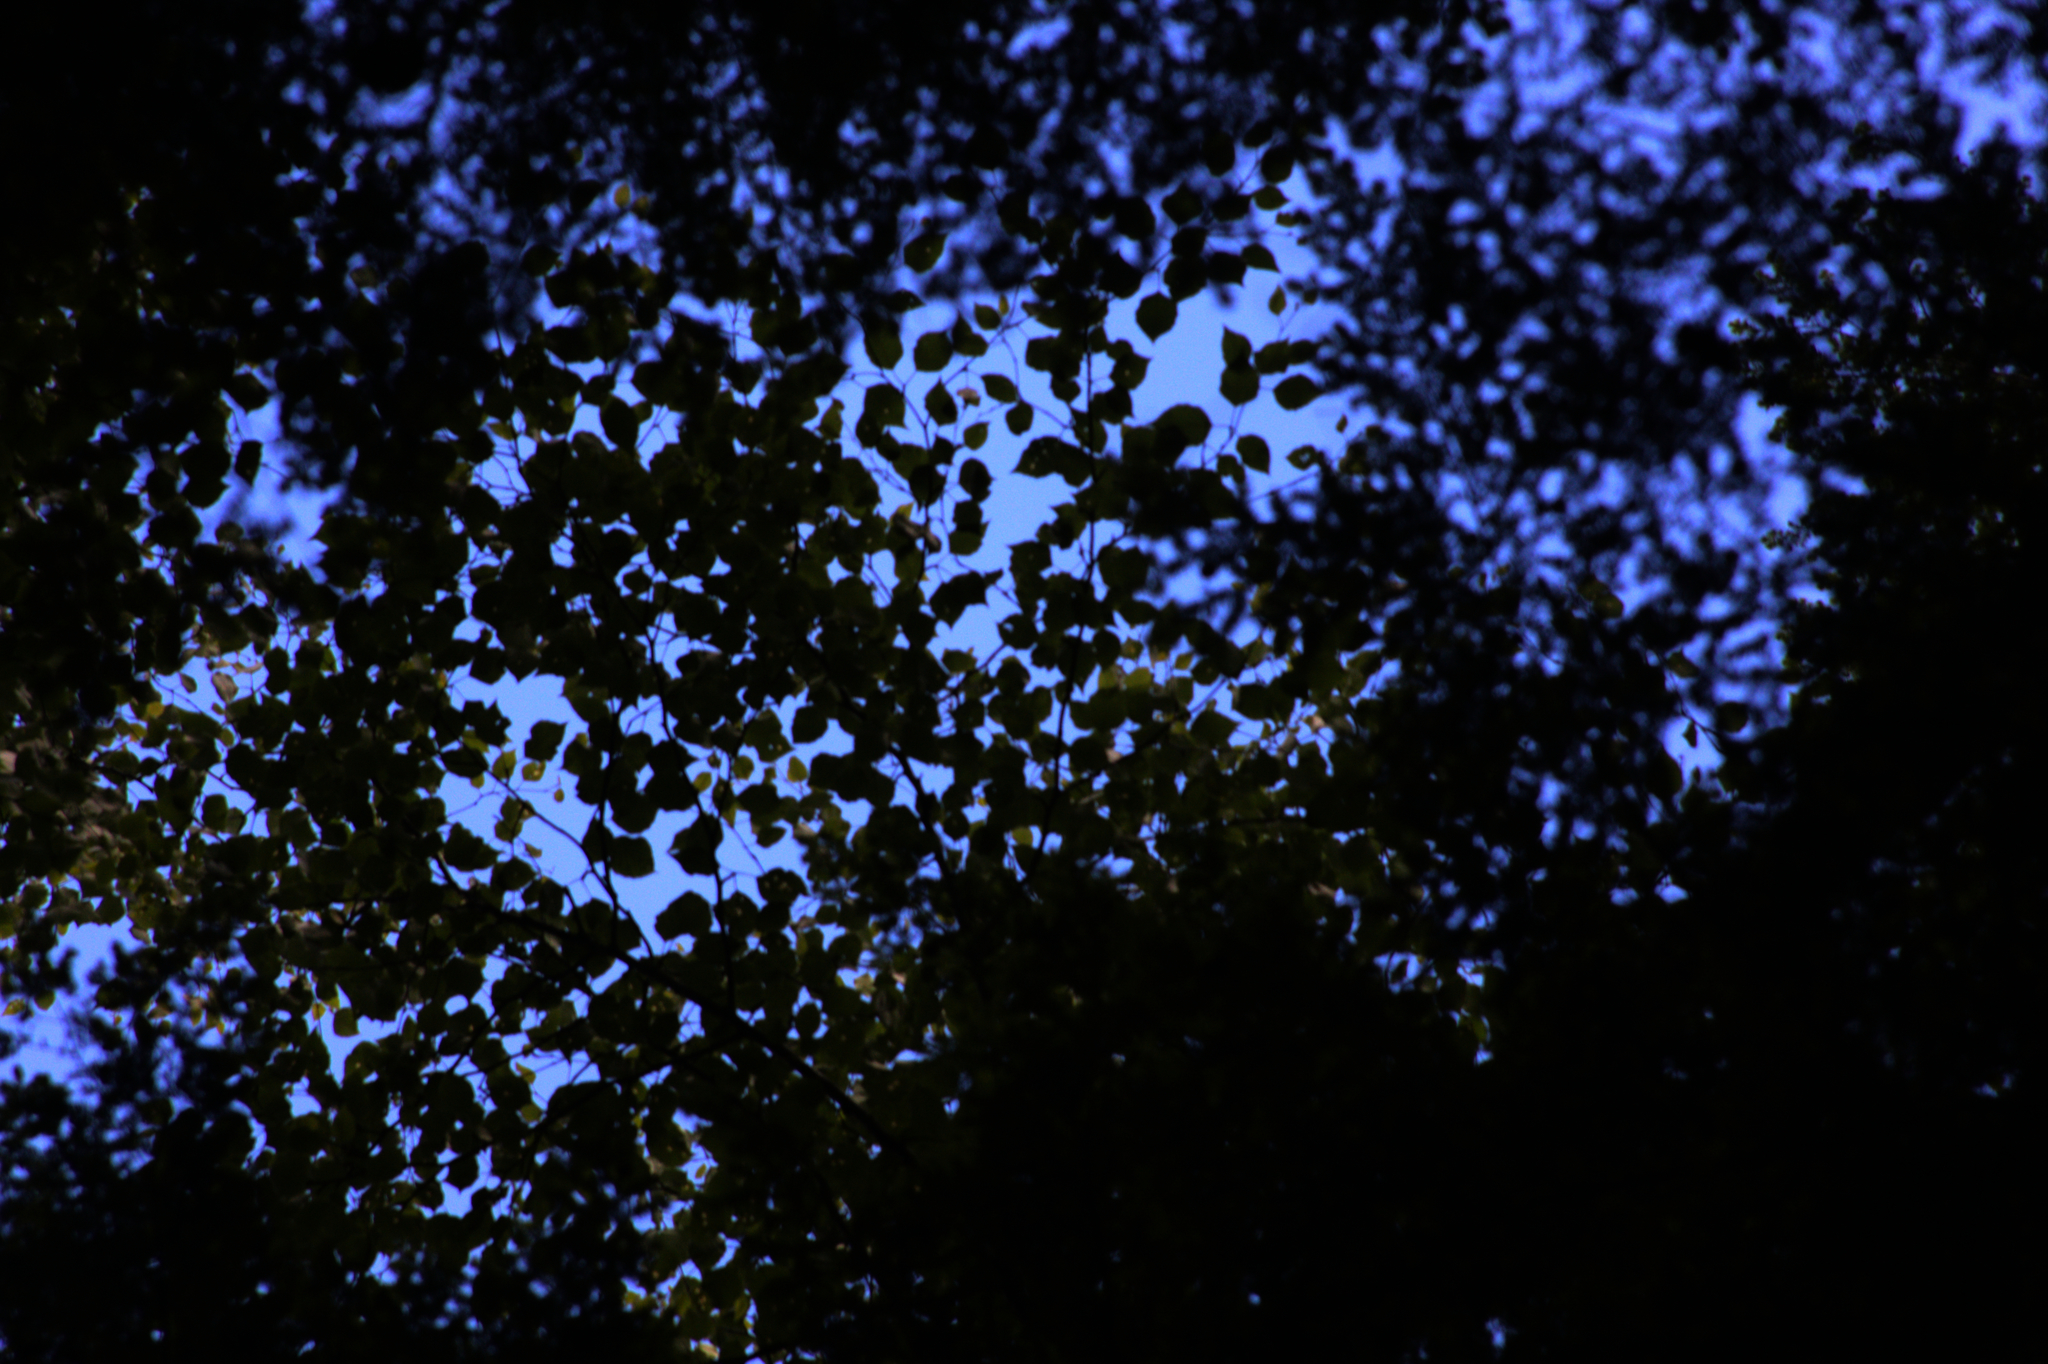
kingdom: Plantae
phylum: Tracheophyta
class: Magnoliopsida
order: Fagales
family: Betulaceae
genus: Betula
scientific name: Betula alleghaniensis
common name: Yellow birch
